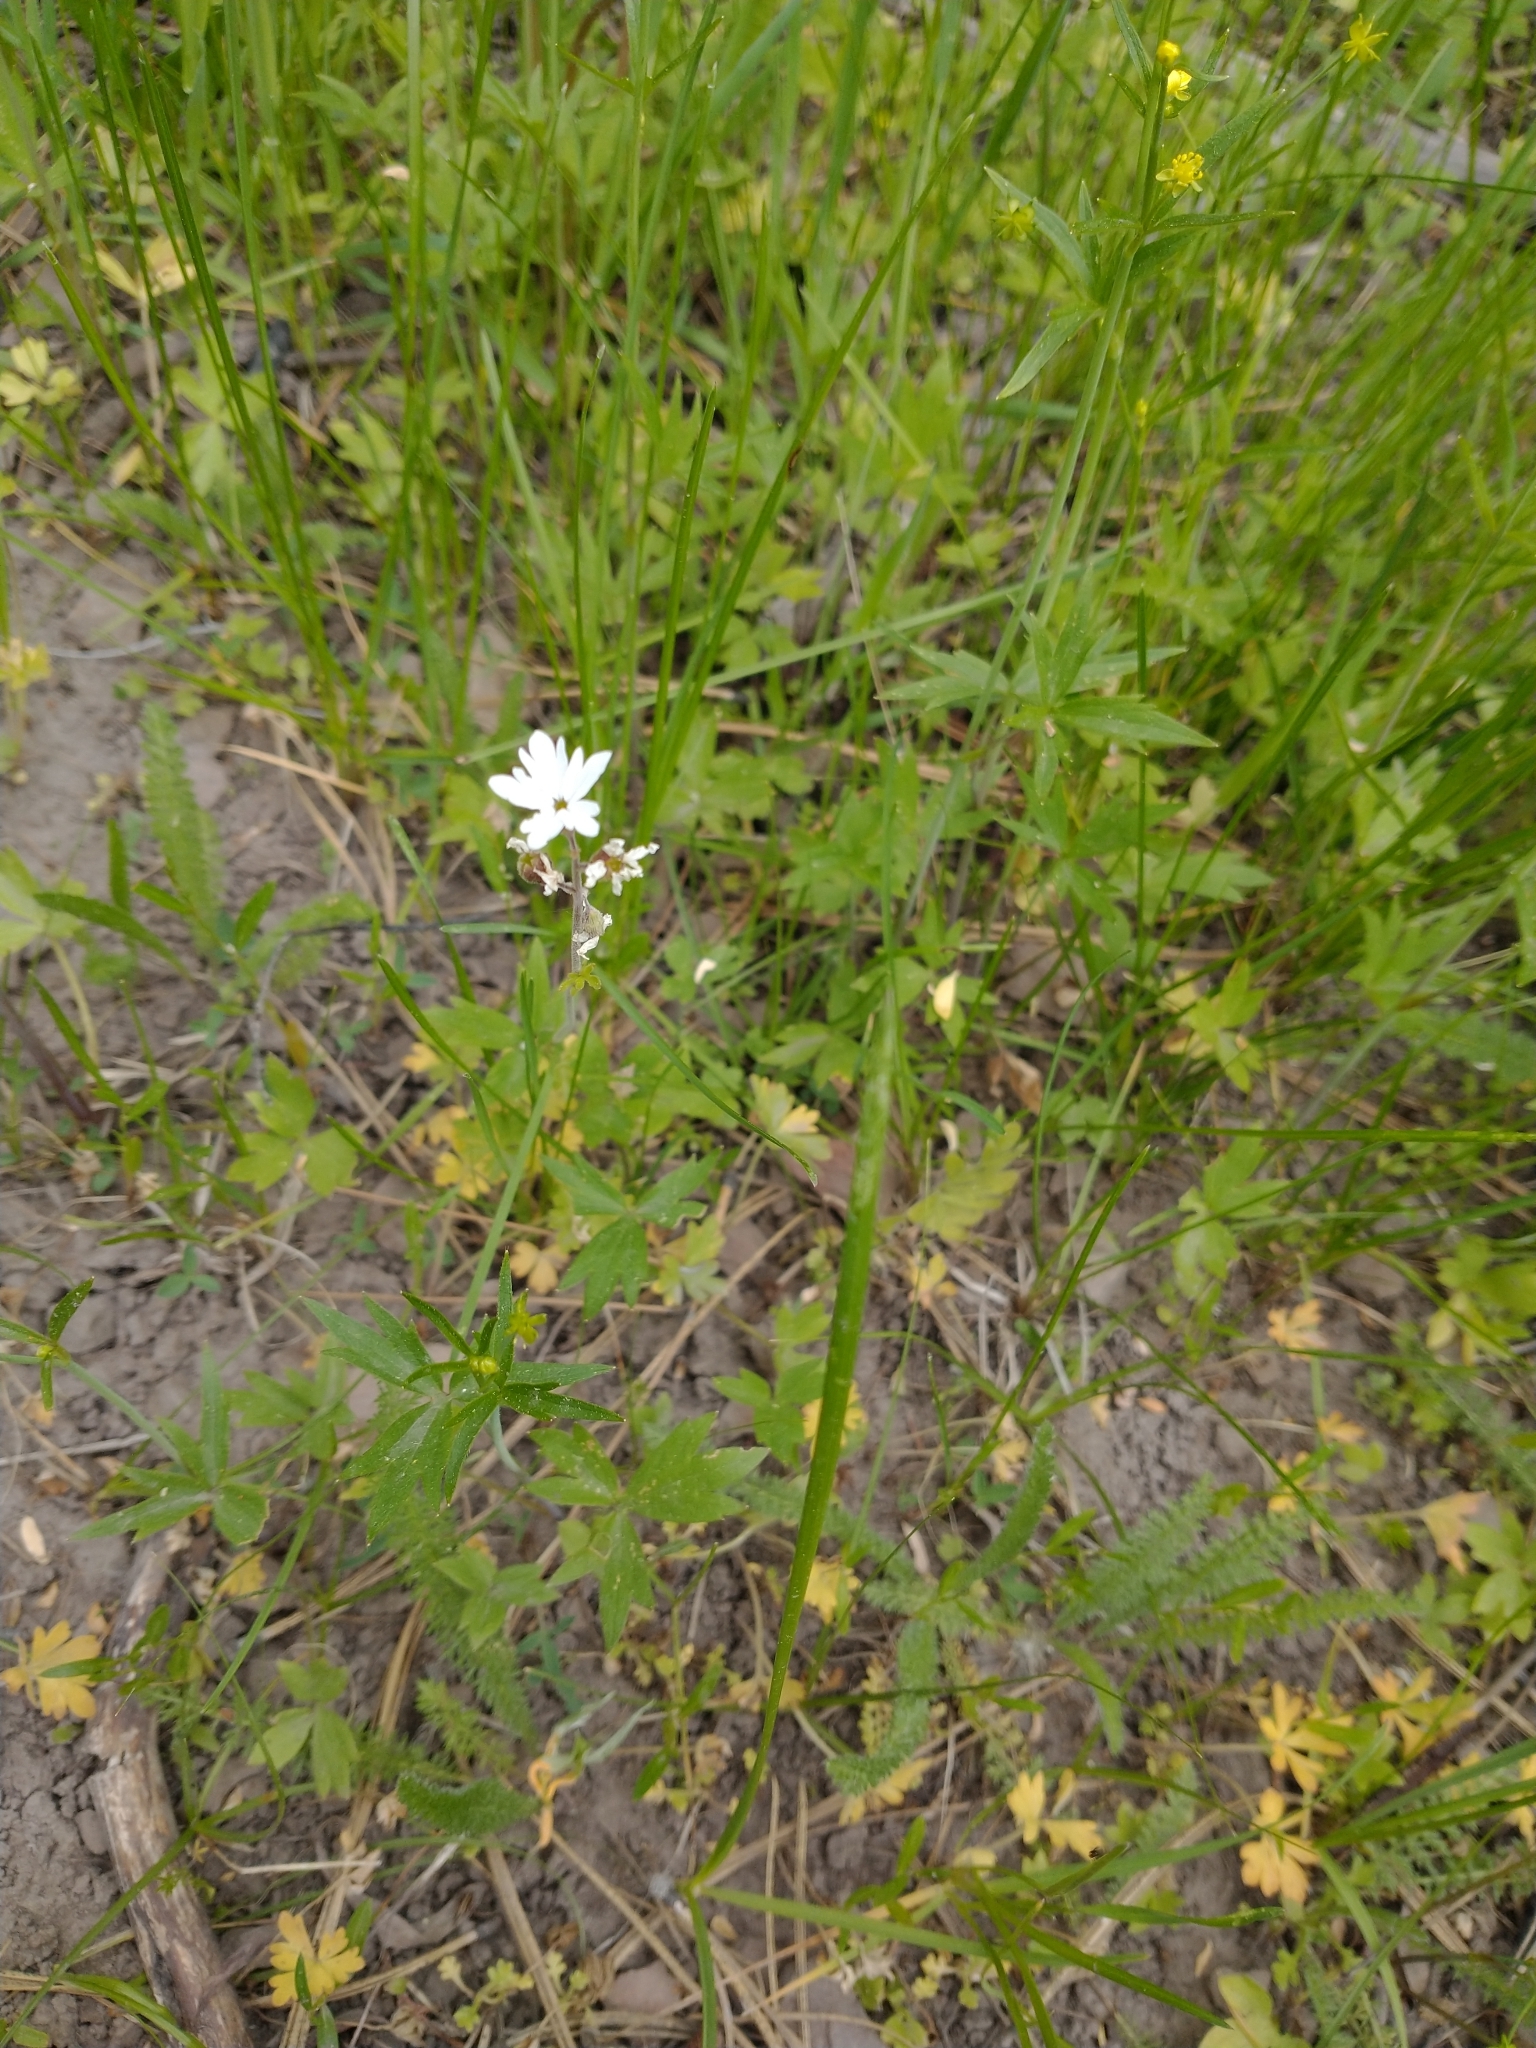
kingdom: Plantae
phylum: Tracheophyta
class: Magnoliopsida
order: Saxifragales
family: Saxifragaceae
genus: Lithophragma
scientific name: Lithophragma parviflorum
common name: Small-flowered fringe-cup
